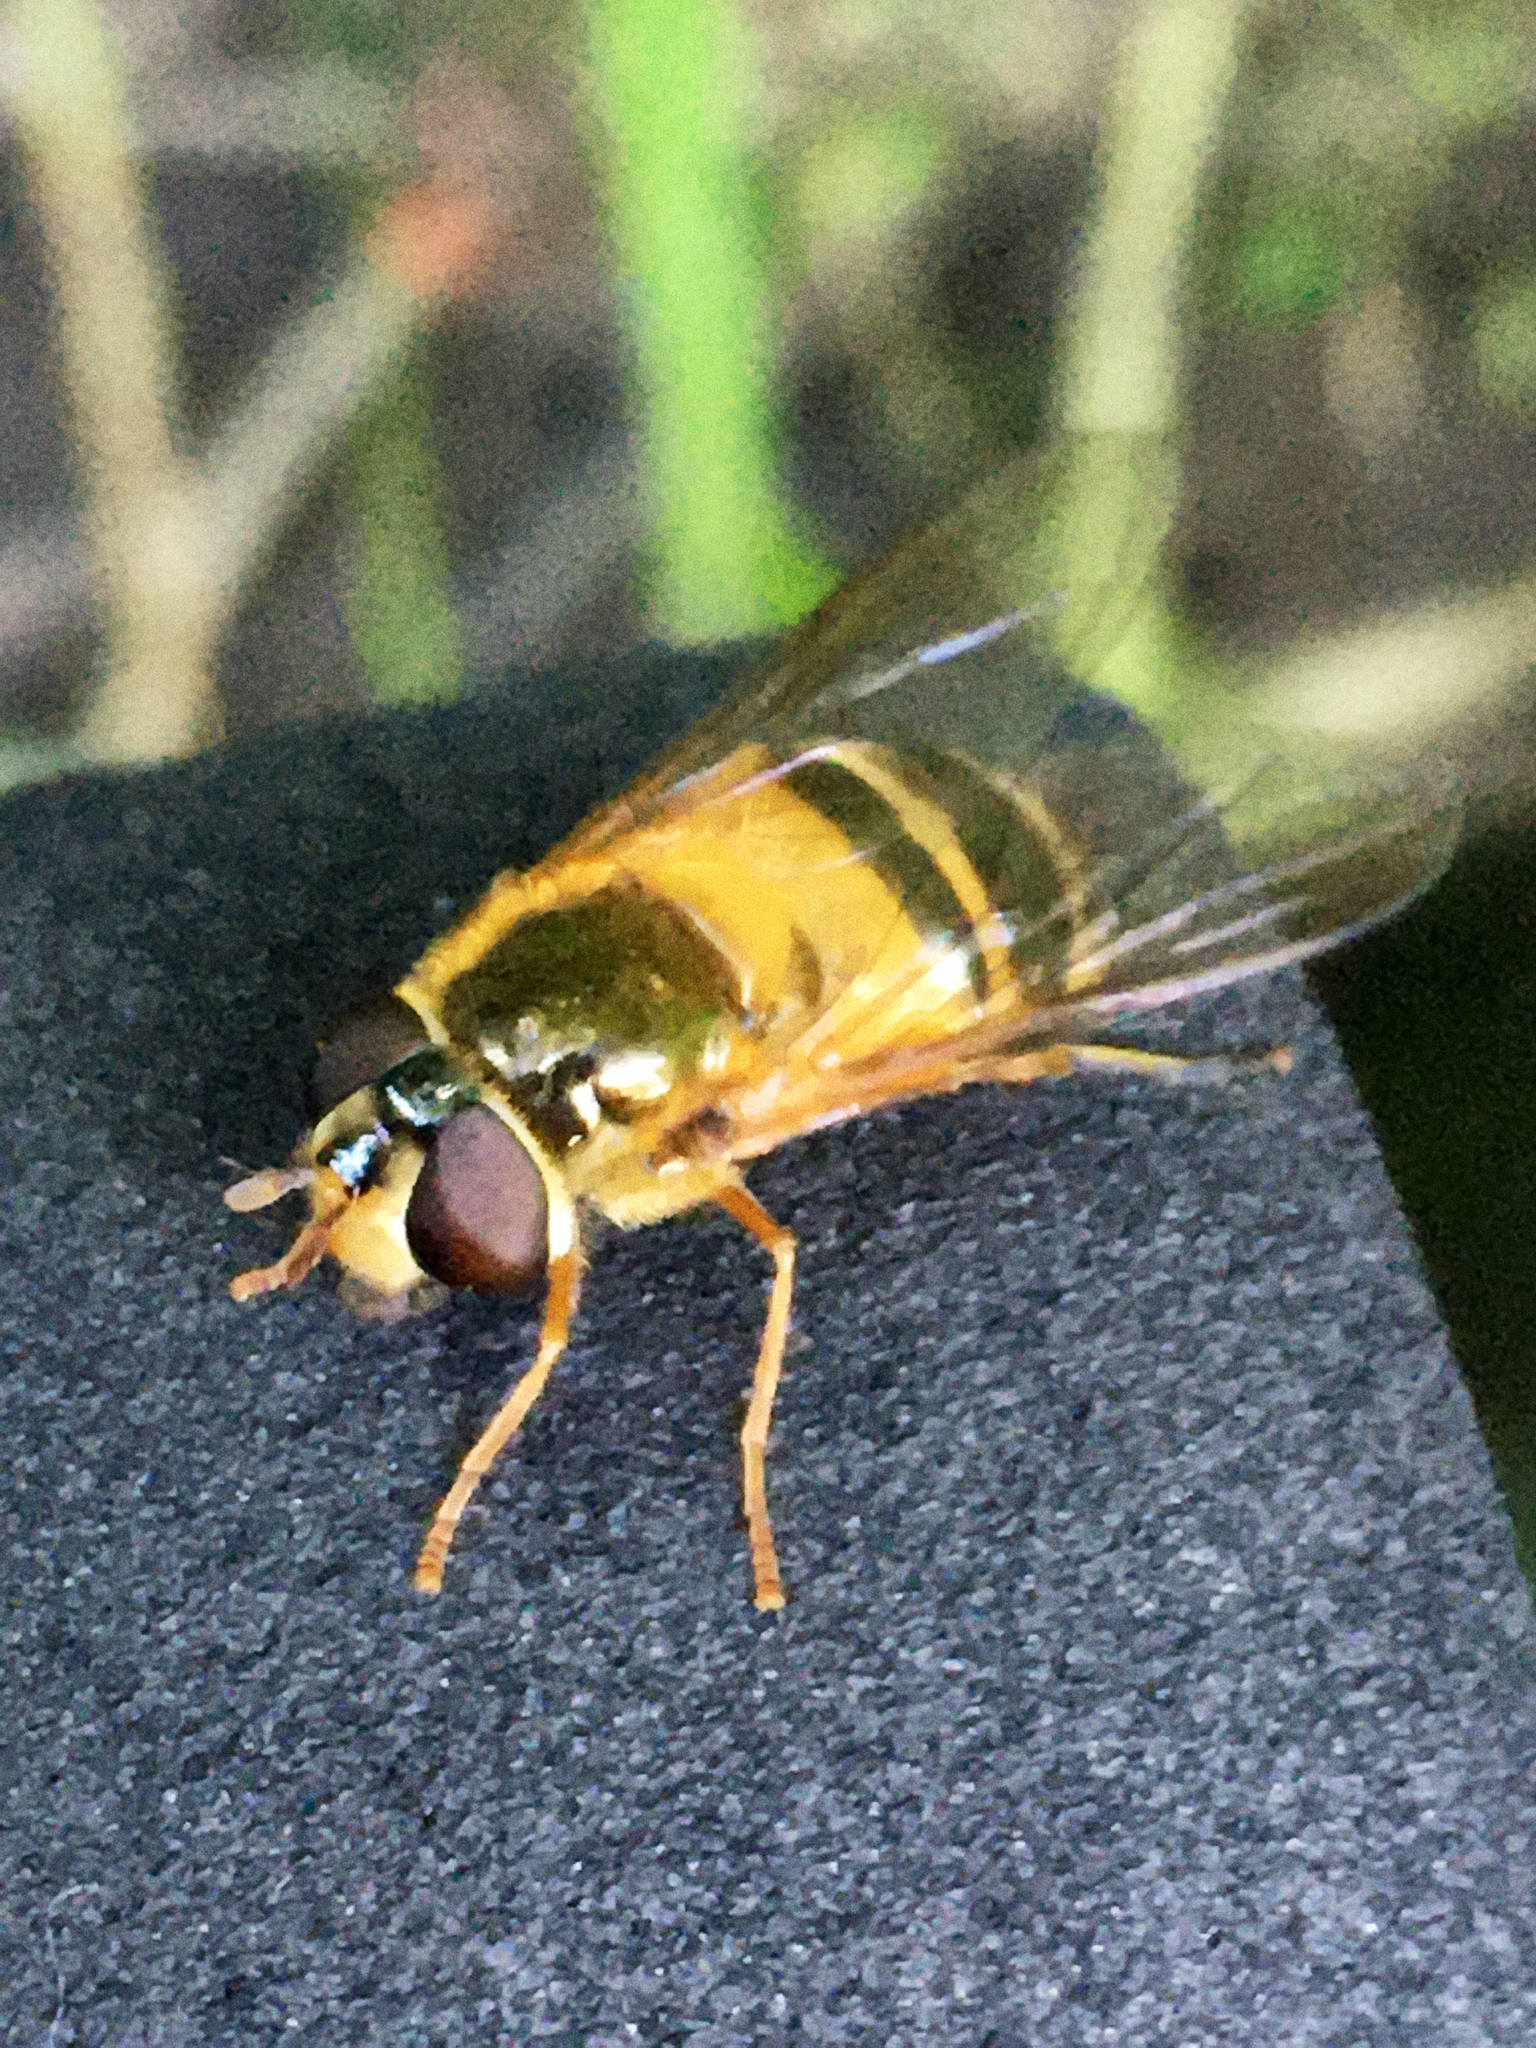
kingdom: Animalia
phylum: Arthropoda
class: Insecta
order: Diptera
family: Syrphidae
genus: Epistrophe
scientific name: Epistrophe eligans
